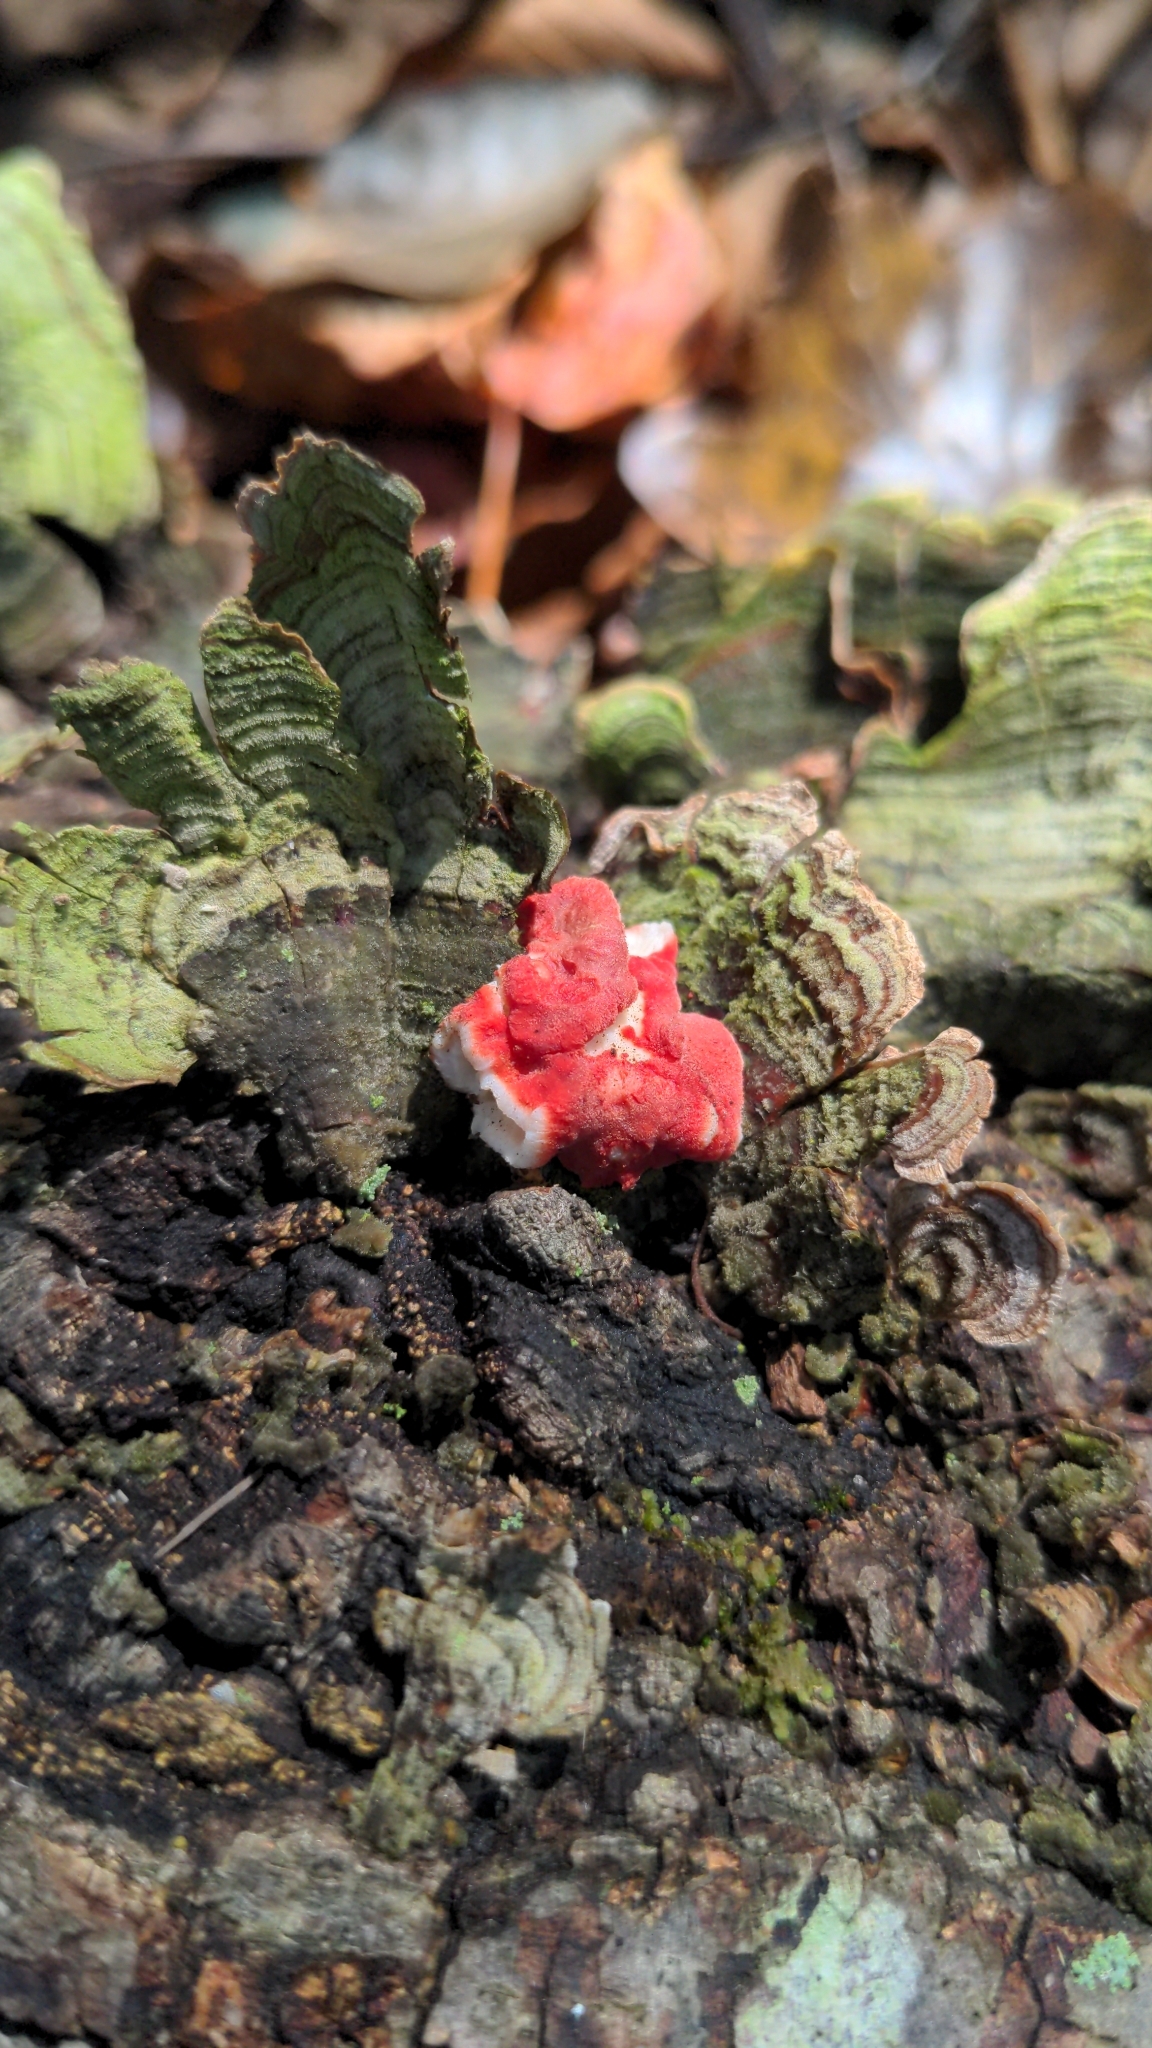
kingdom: Fungi
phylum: Basidiomycota
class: Agaricomycetes
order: Polyporales
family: Irpicaceae
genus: Byssomerulius
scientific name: Byssomerulius incarnatus
